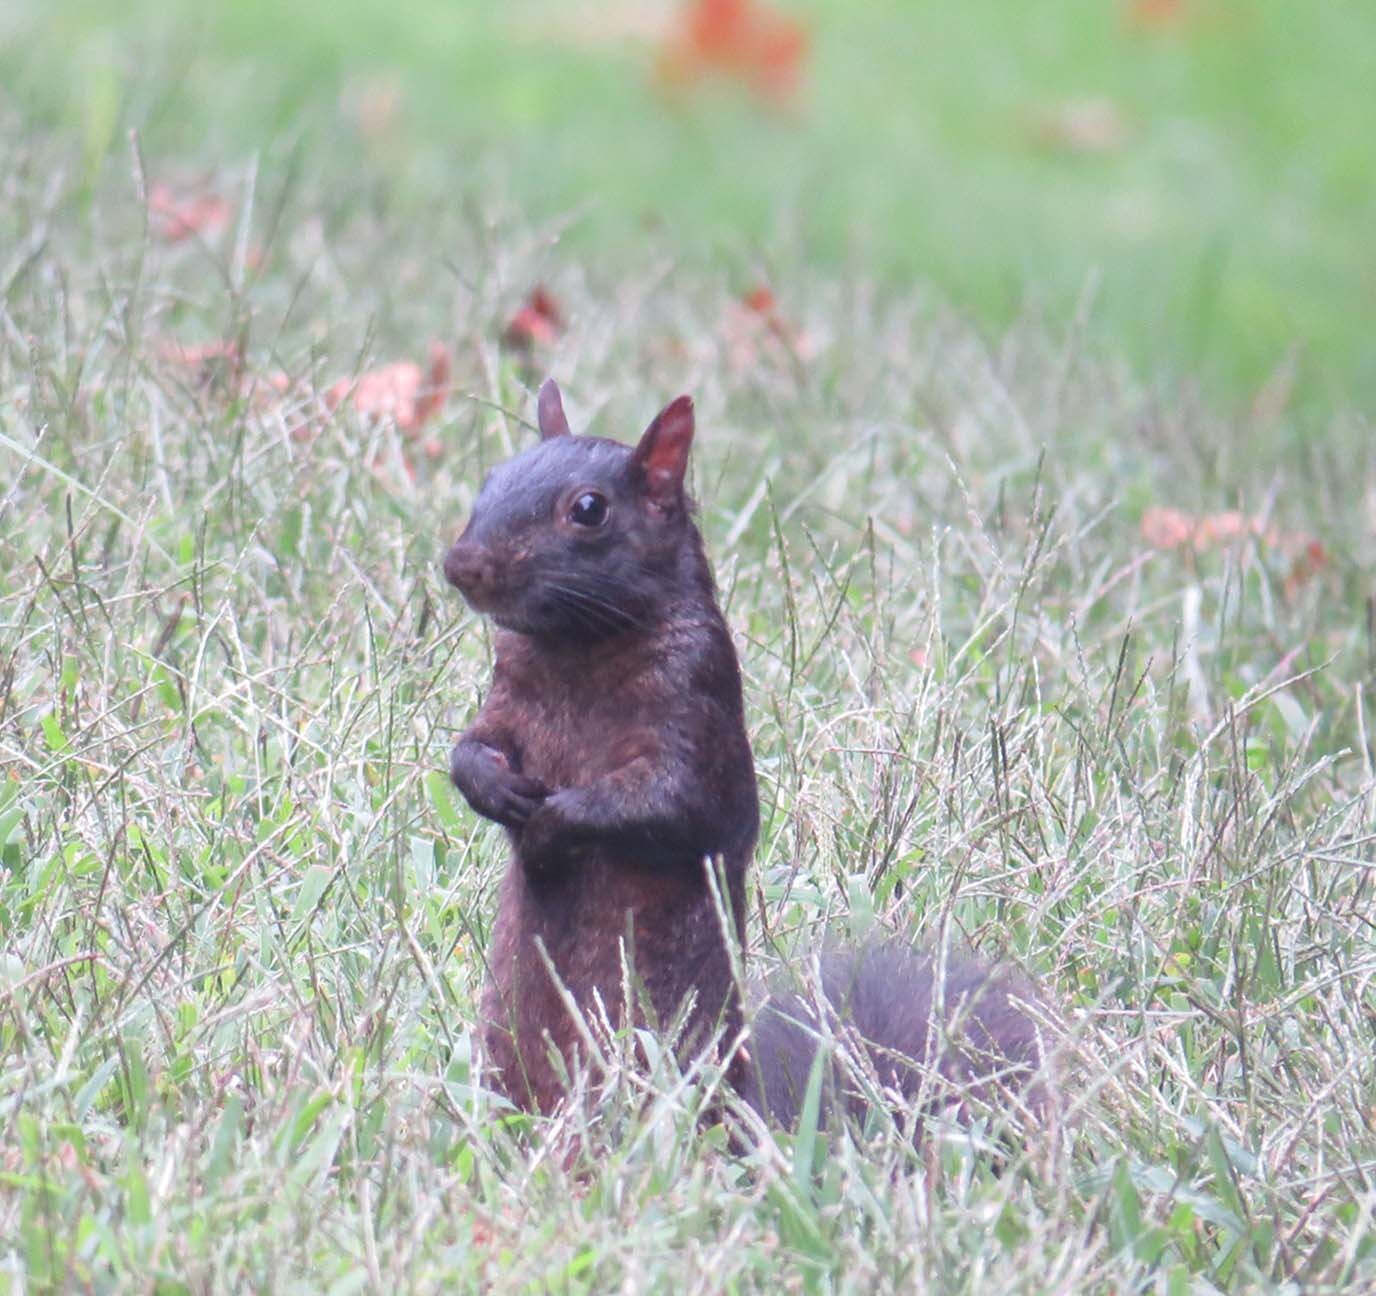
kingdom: Animalia
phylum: Chordata
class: Mammalia
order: Rodentia
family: Sciuridae
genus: Sciurus
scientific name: Sciurus carolinensis
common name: Eastern gray squirrel
